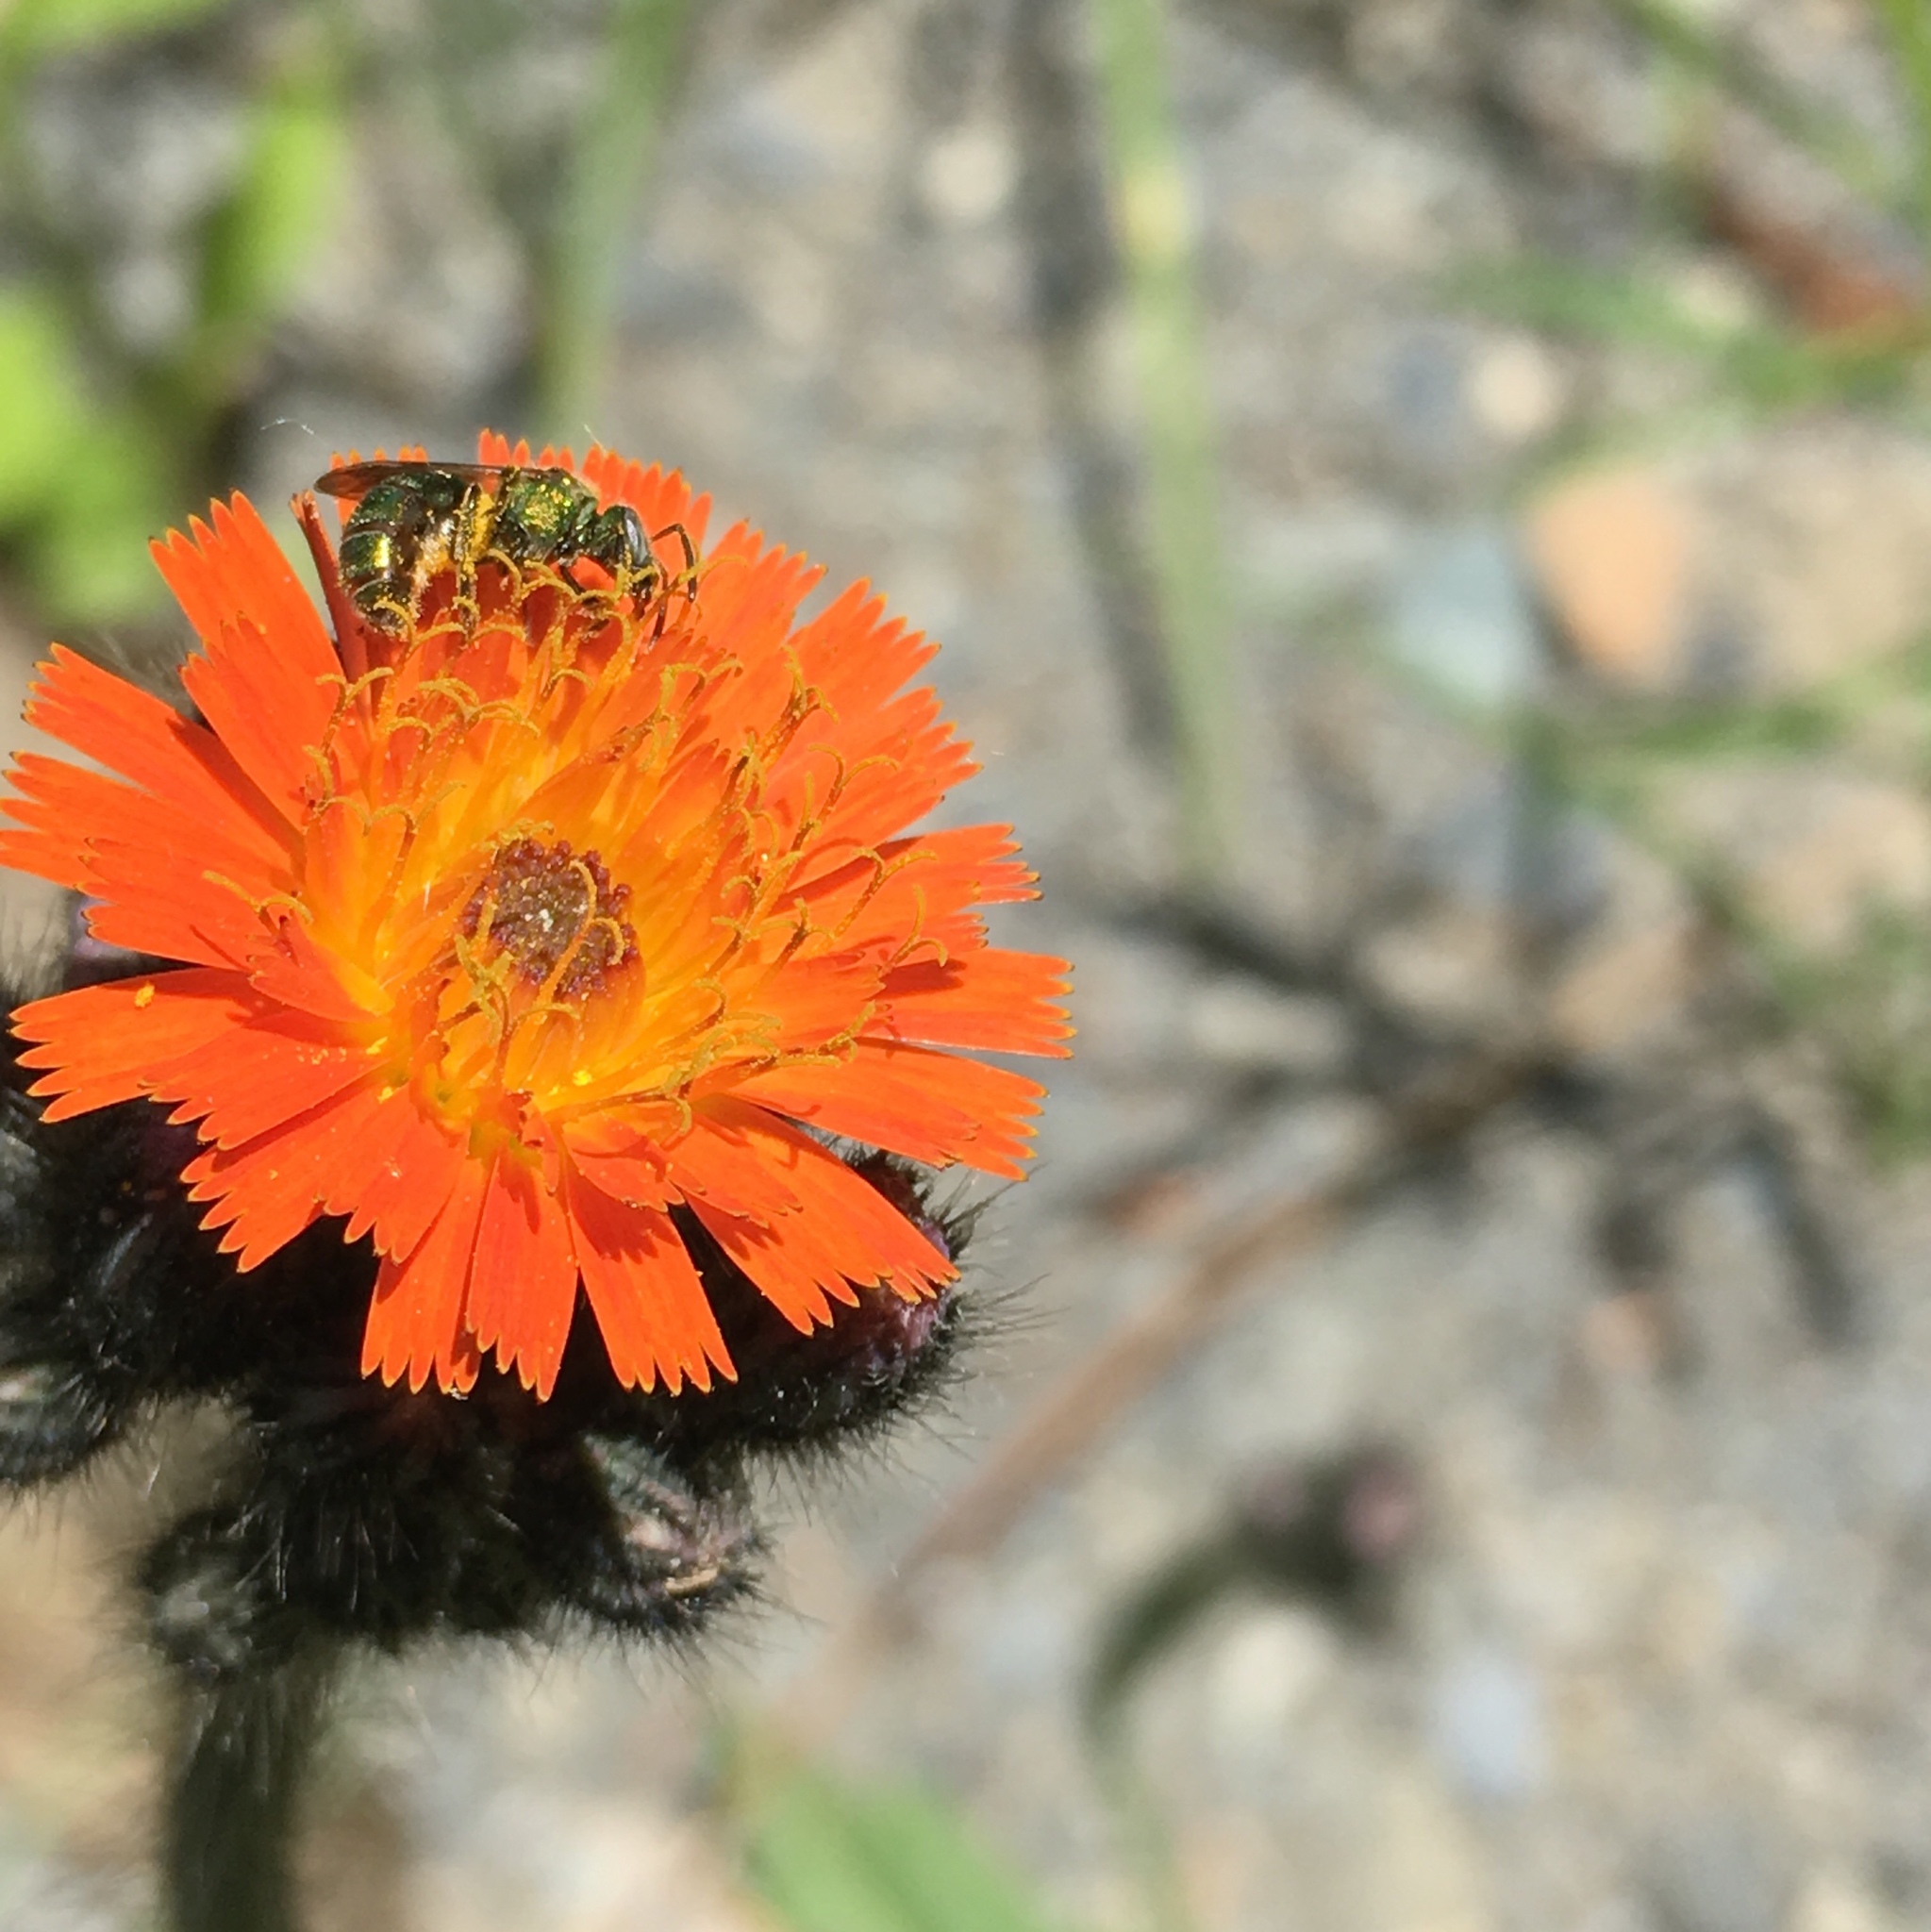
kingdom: Plantae
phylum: Tracheophyta
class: Magnoliopsida
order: Asterales
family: Asteraceae
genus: Pilosella
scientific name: Pilosella aurantiaca
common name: Fox-and-cubs
